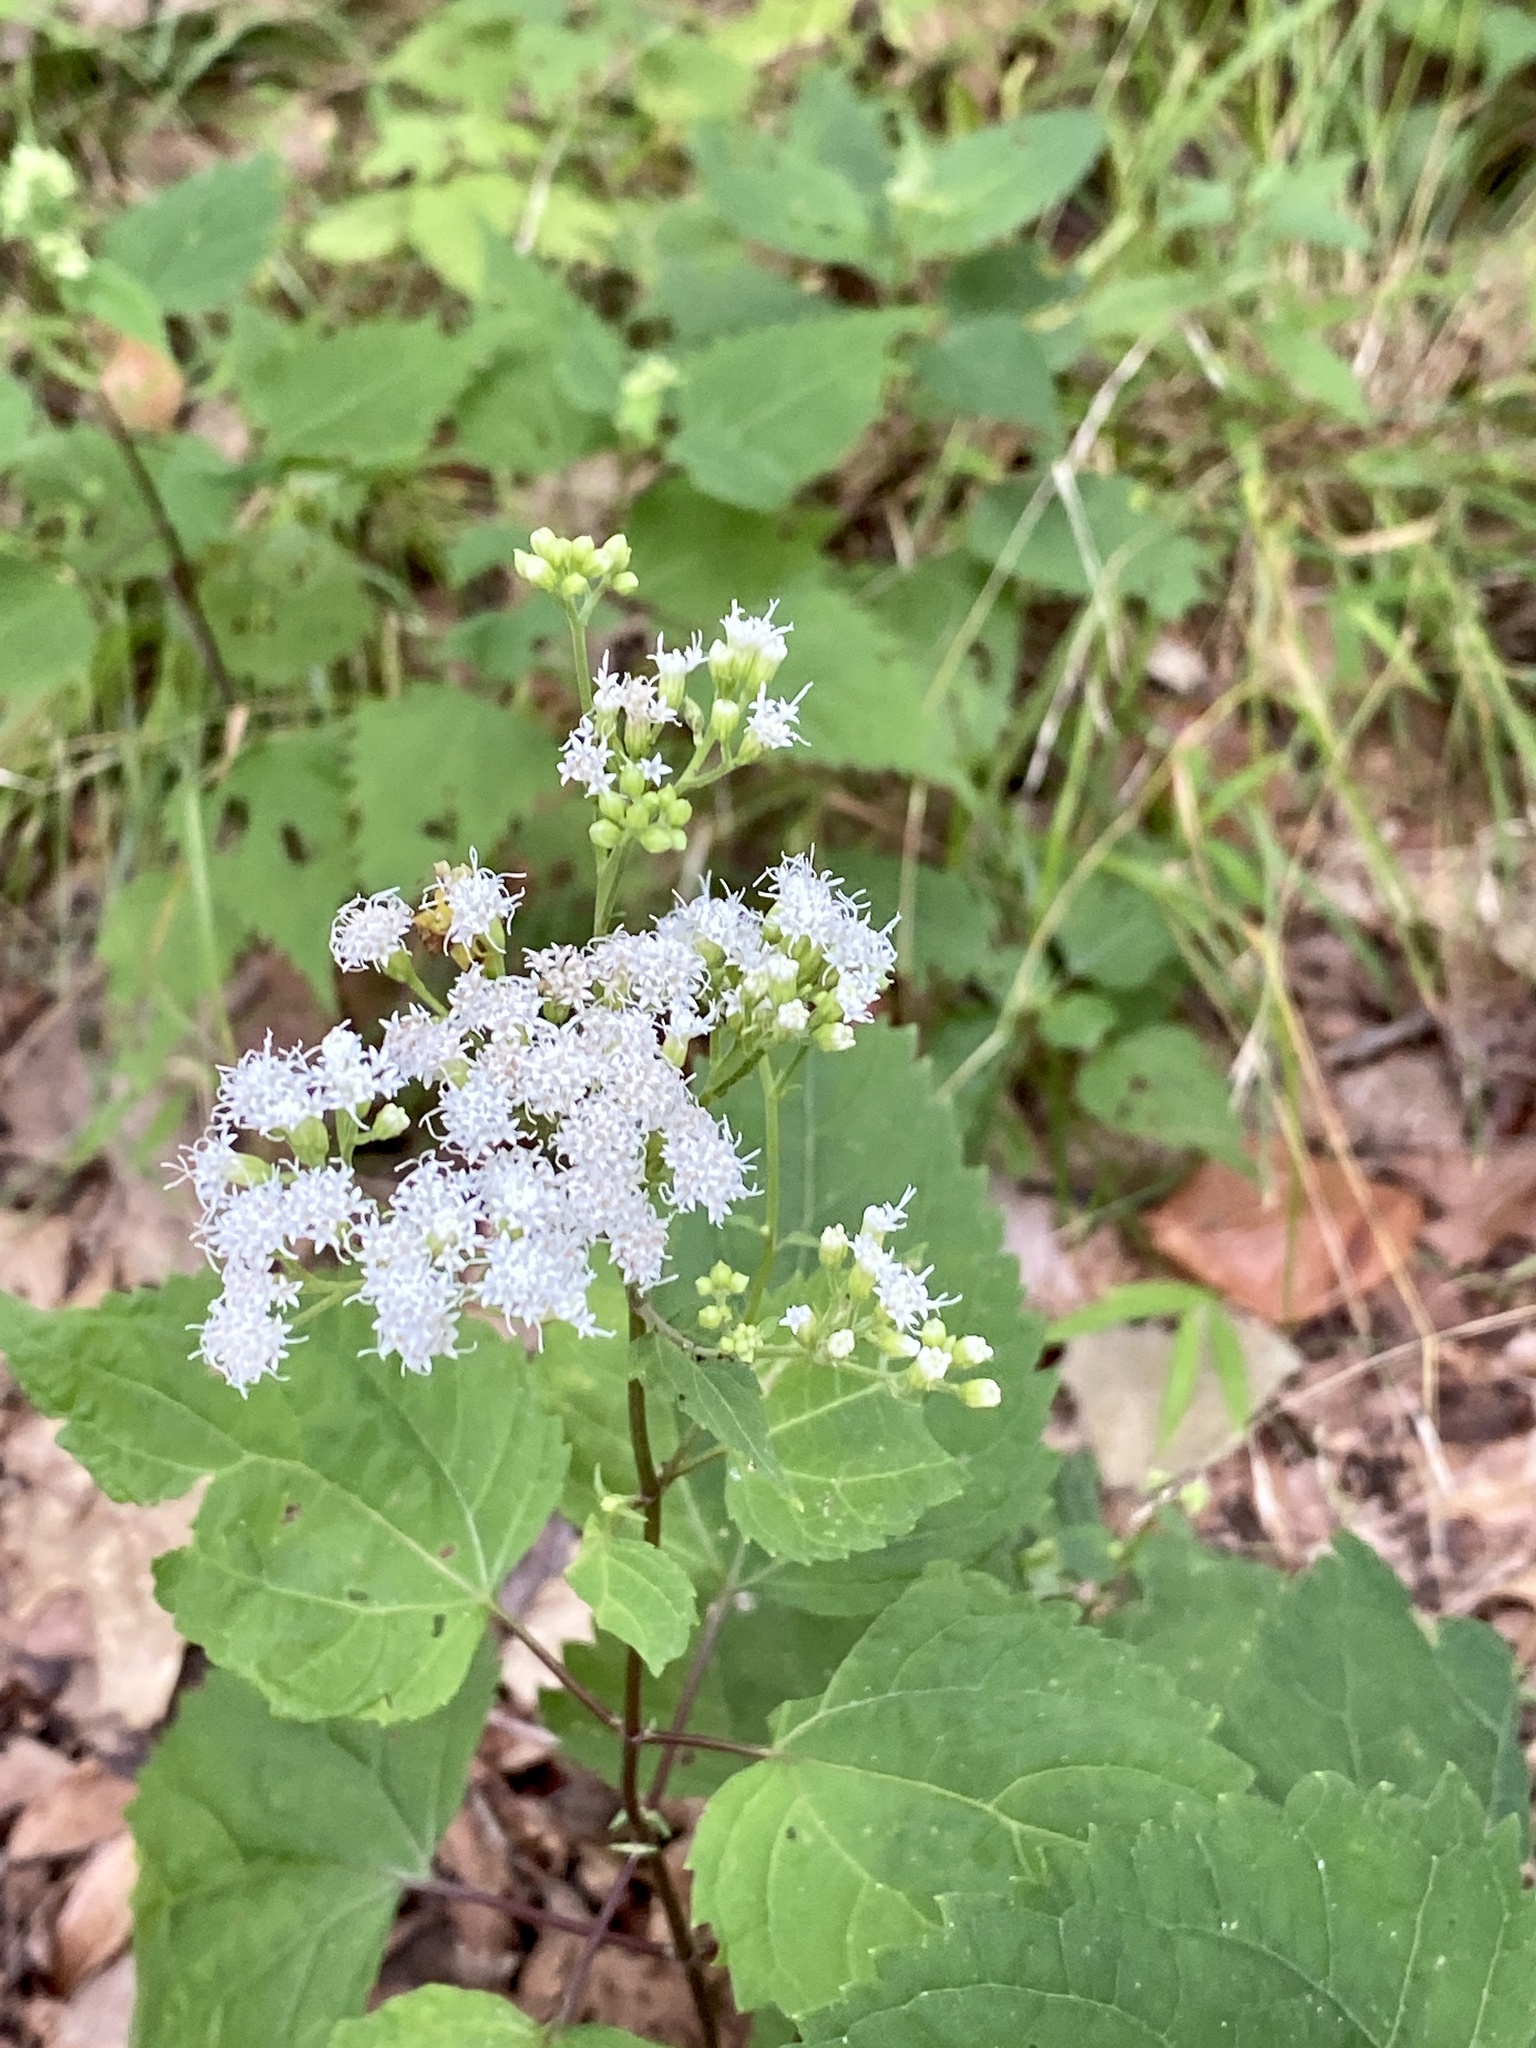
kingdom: Plantae
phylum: Tracheophyta
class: Magnoliopsida
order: Asterales
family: Asteraceae
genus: Ageratina
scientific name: Ageratina altissima
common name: White snakeroot
